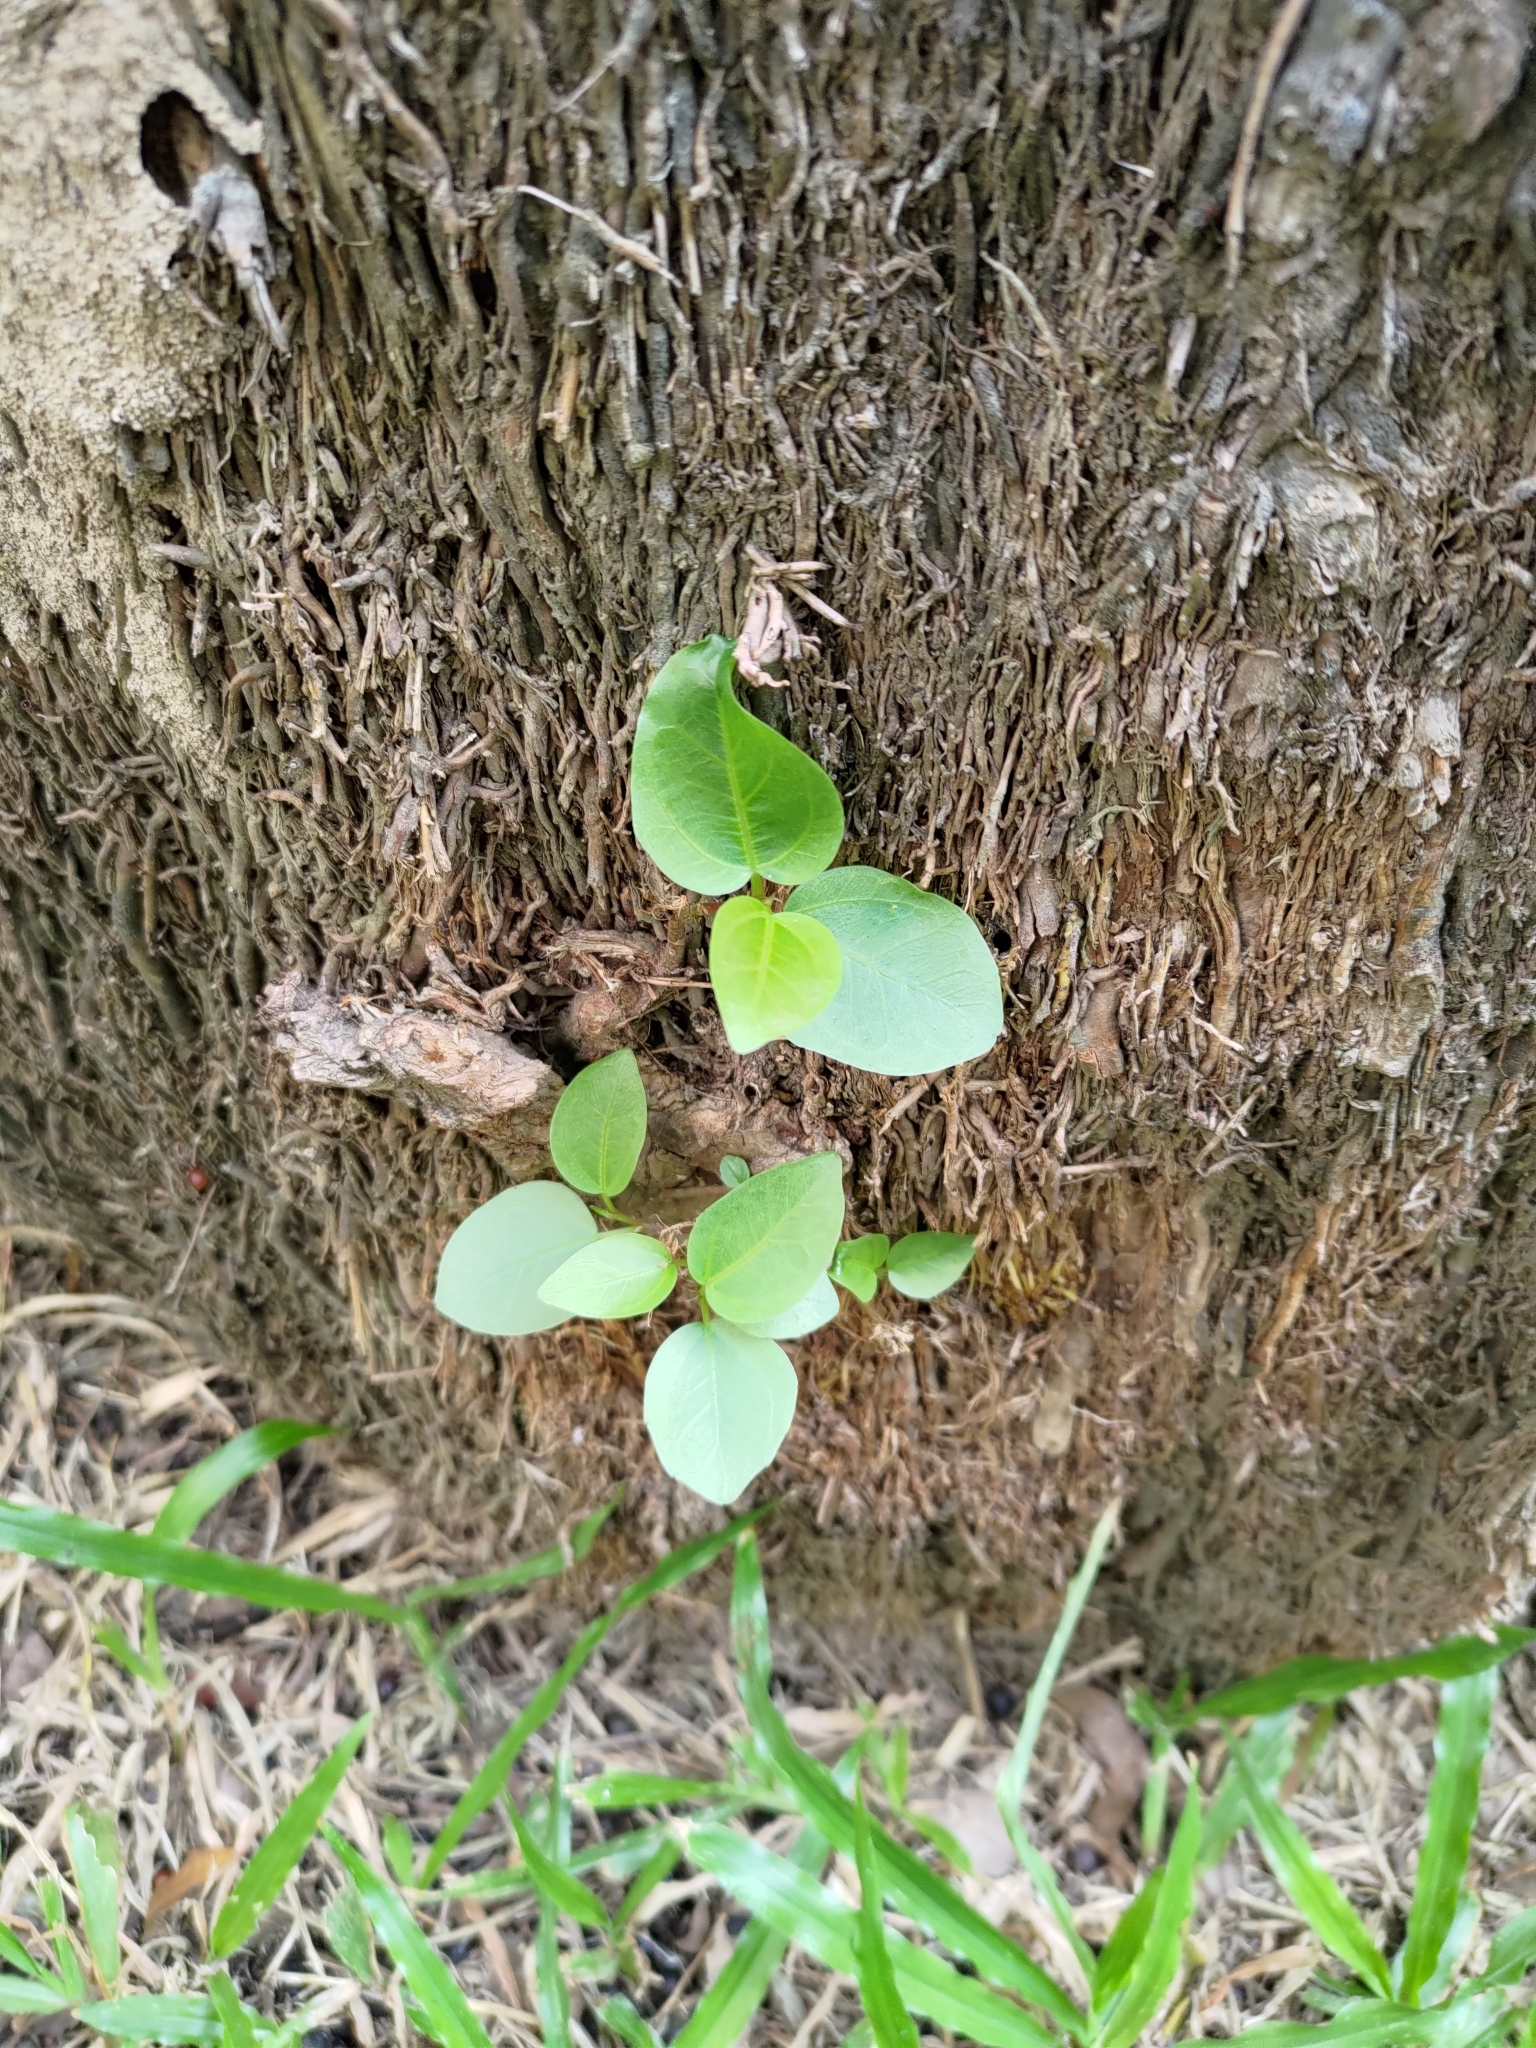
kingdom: Plantae
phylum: Tracheophyta
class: Magnoliopsida
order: Rosales
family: Moraceae
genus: Ficus
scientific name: Ficus subpisocarpa
